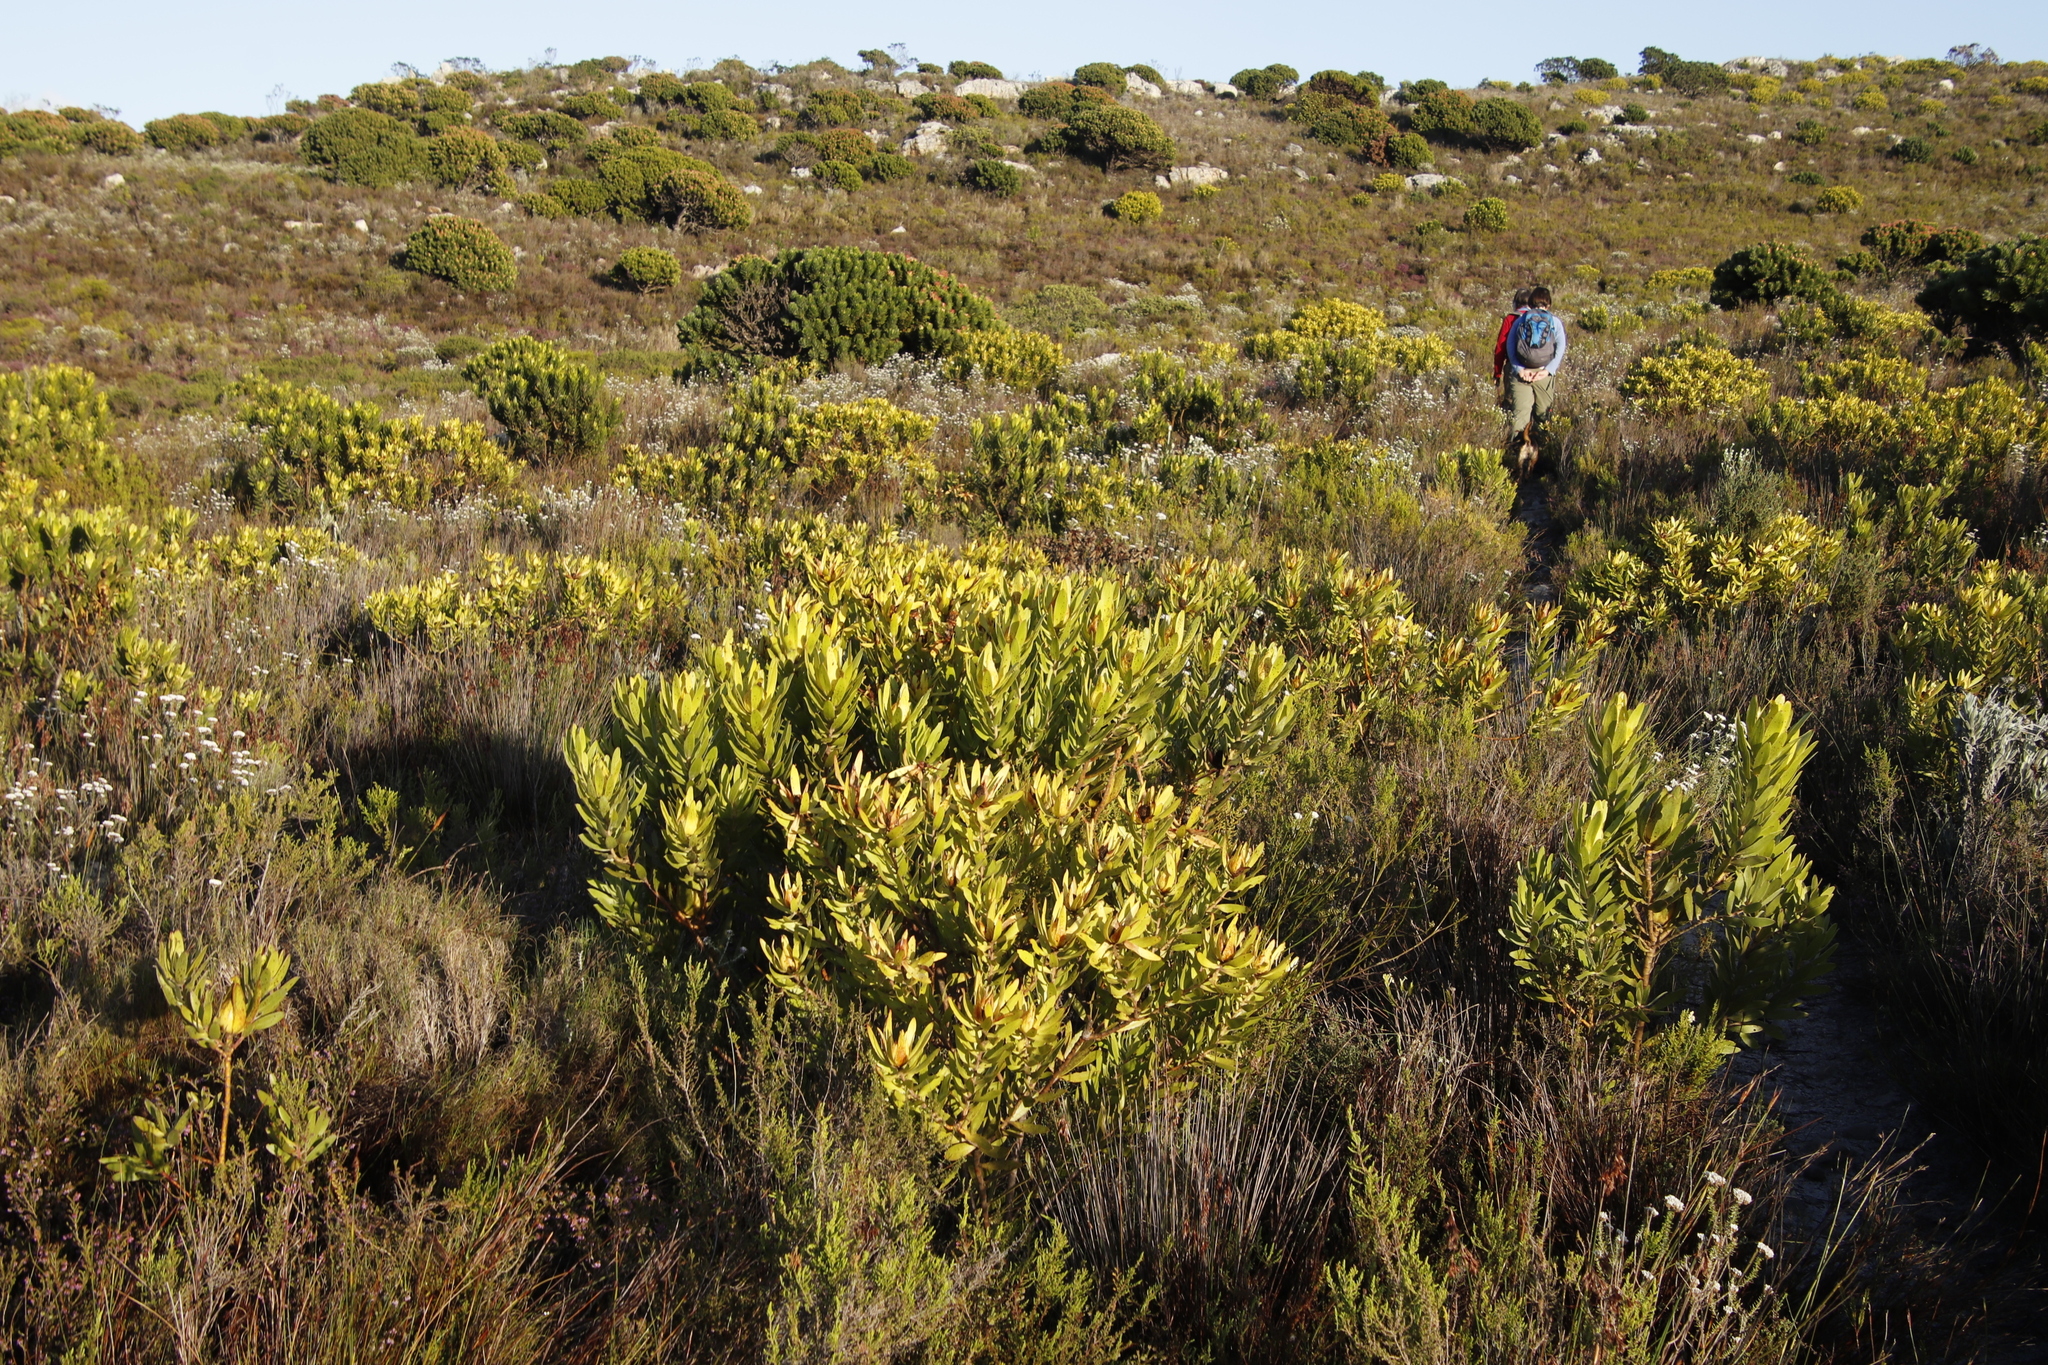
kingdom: Plantae
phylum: Tracheophyta
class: Magnoliopsida
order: Proteales
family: Proteaceae
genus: Leucadendron
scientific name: Leucadendron laureolum
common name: Golden sunshinebush
